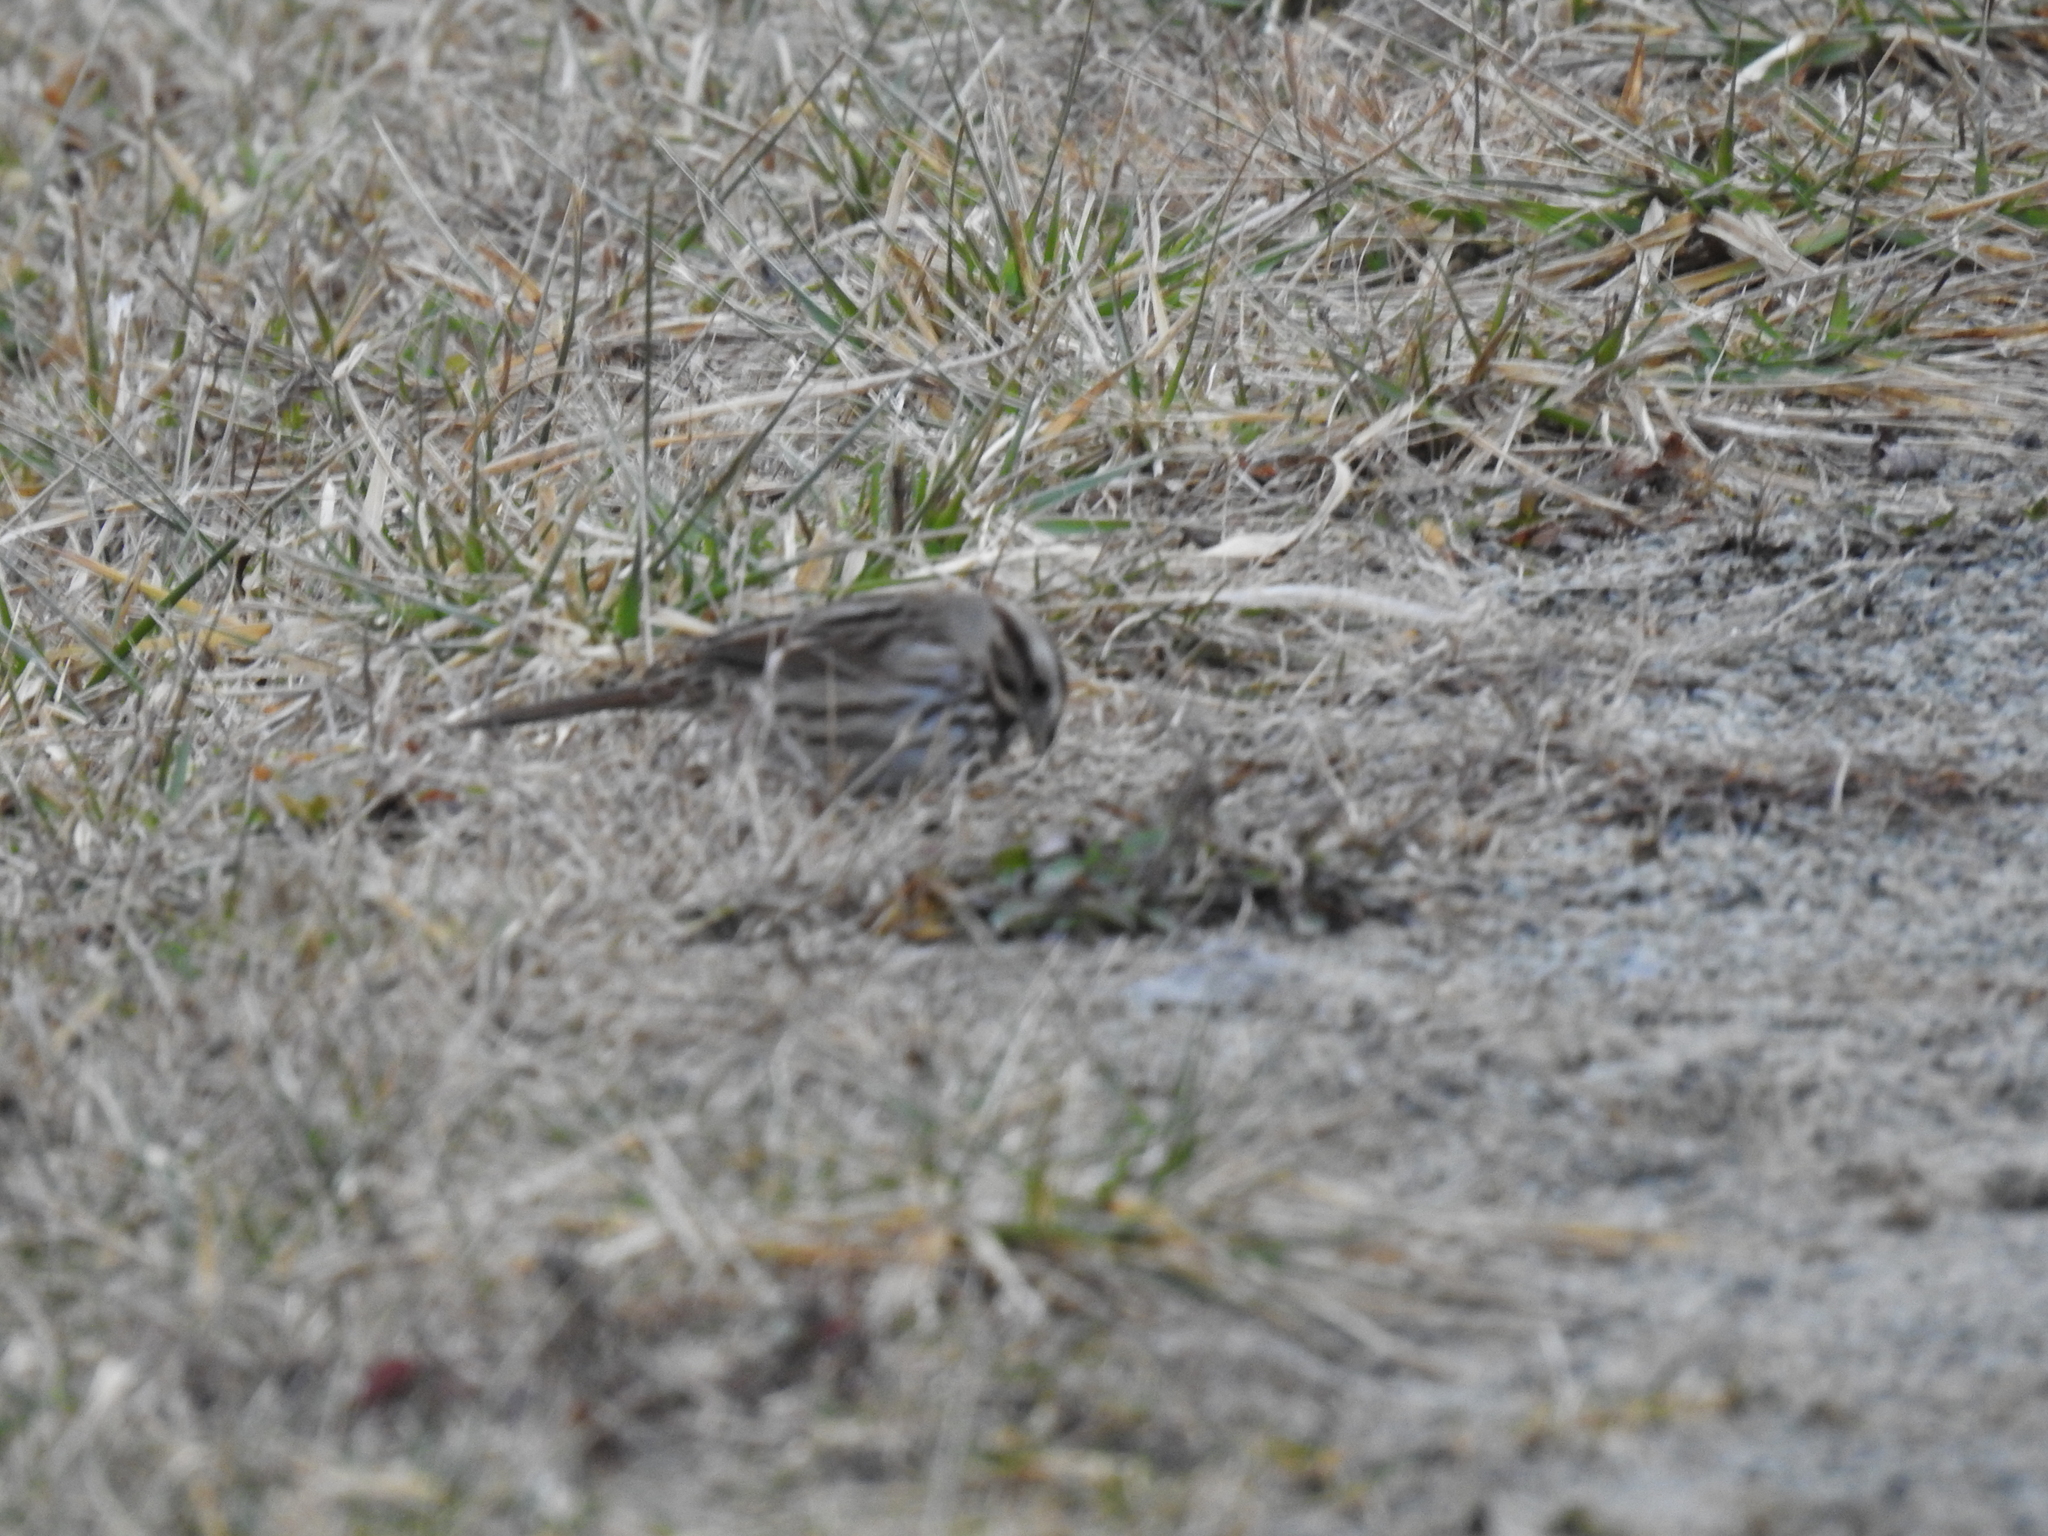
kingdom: Animalia
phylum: Chordata
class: Aves
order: Passeriformes
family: Passerellidae
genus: Melospiza
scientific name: Melospiza melodia
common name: Song sparrow
